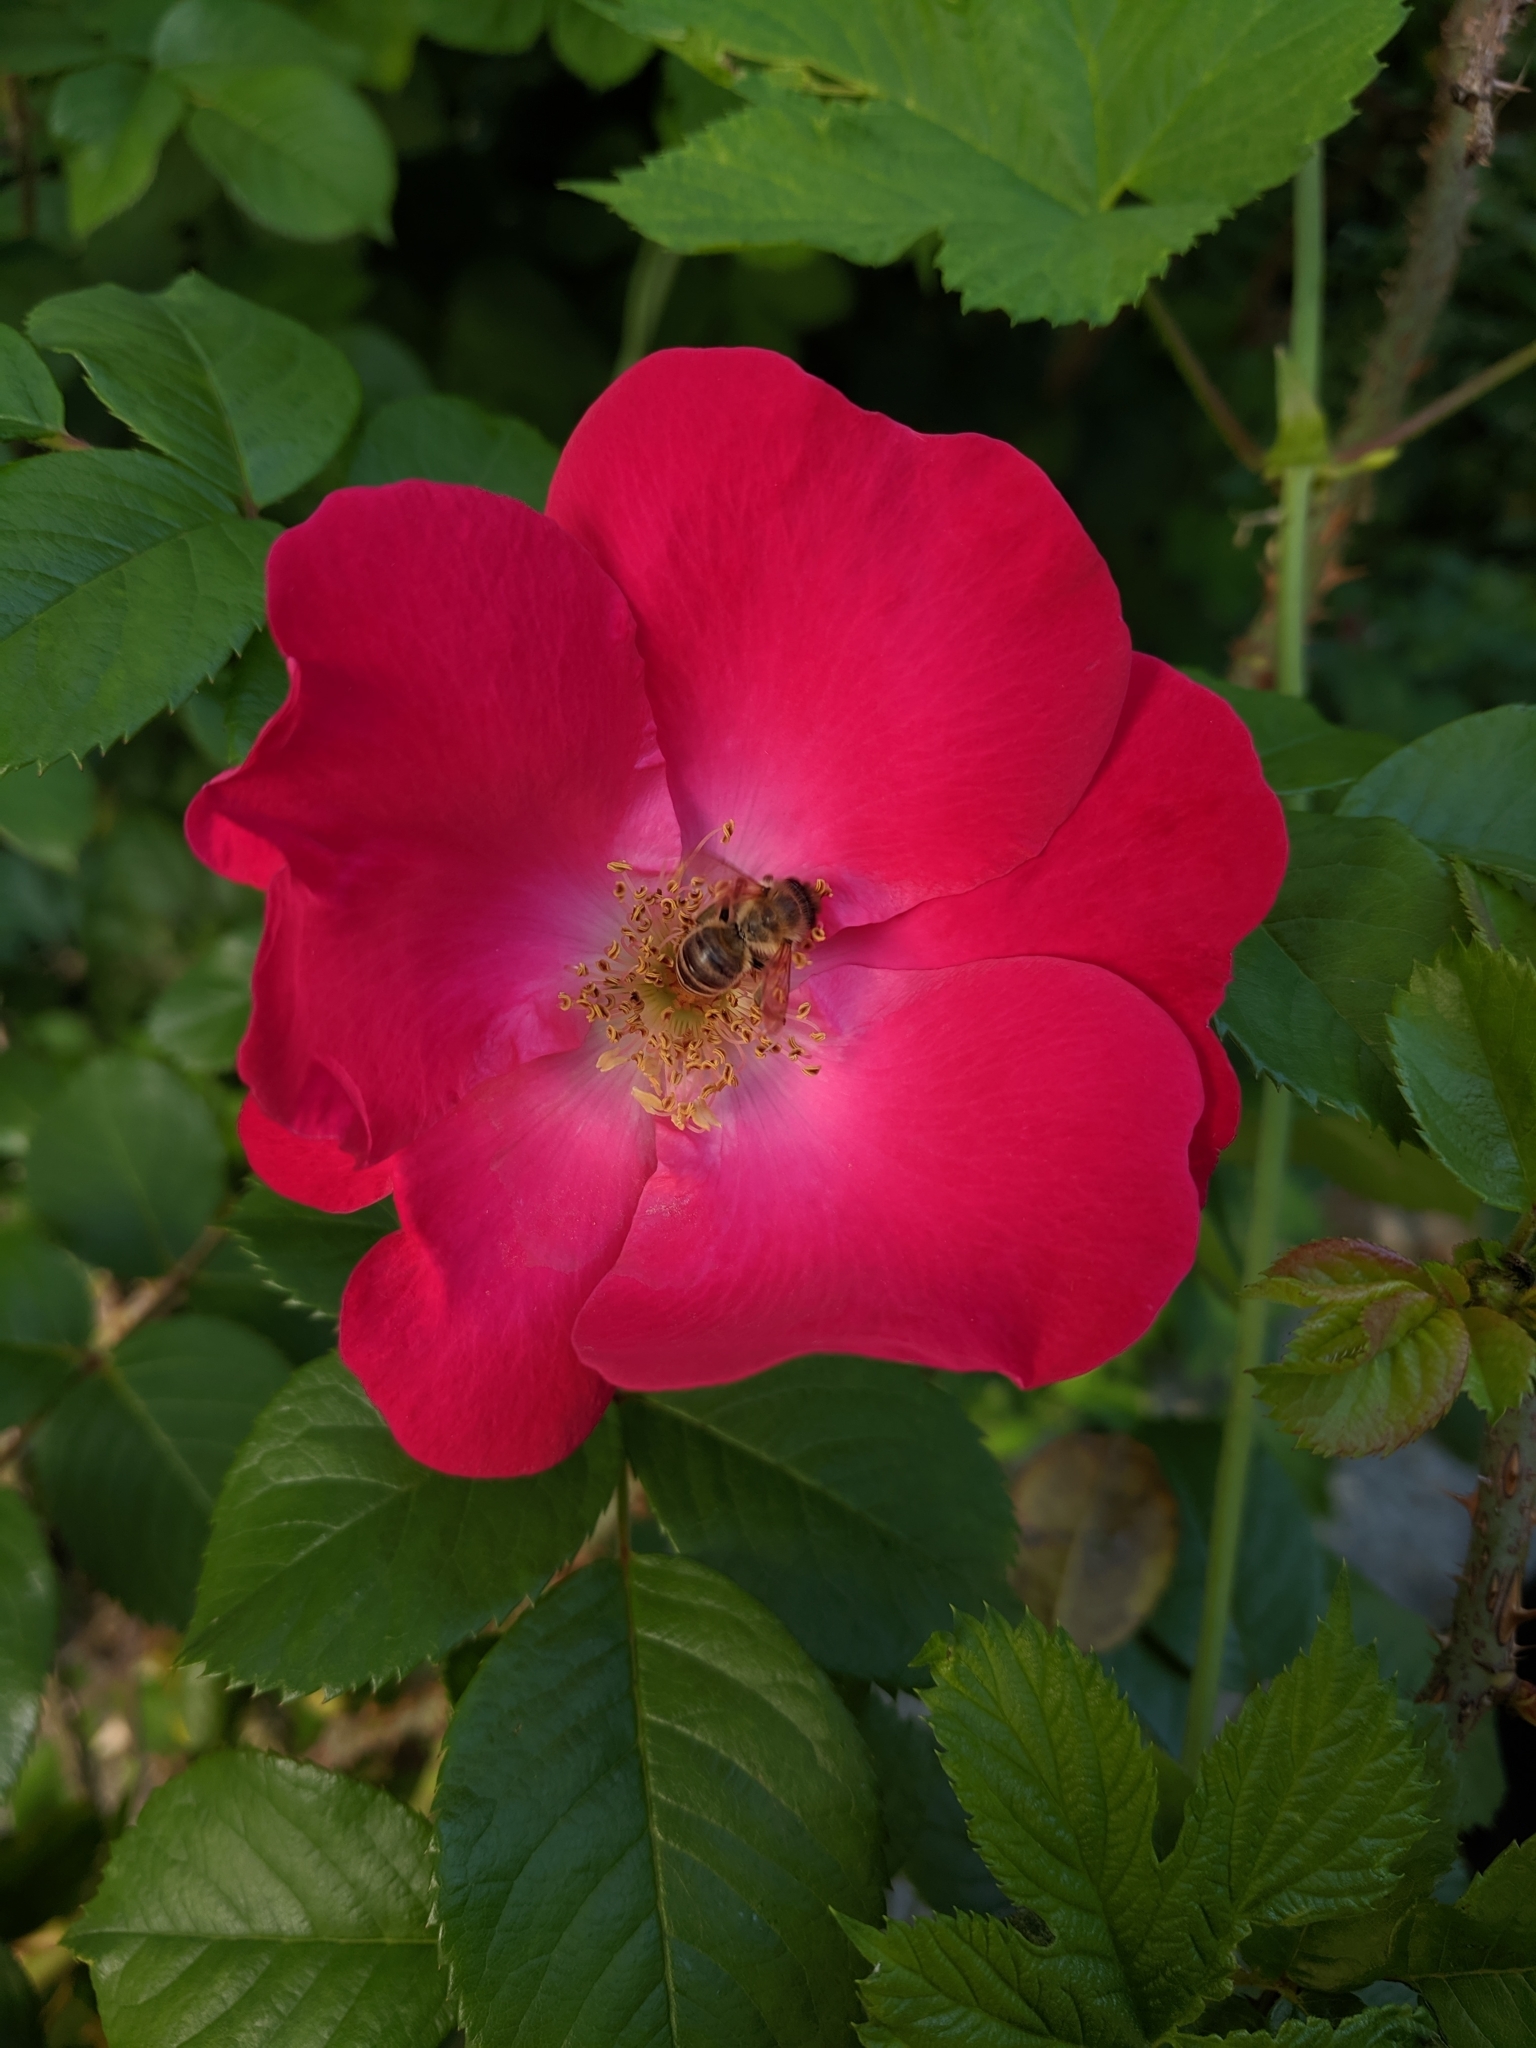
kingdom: Animalia
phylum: Arthropoda
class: Insecta
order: Hymenoptera
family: Apidae
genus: Apis
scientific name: Apis mellifera
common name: Honey bee
